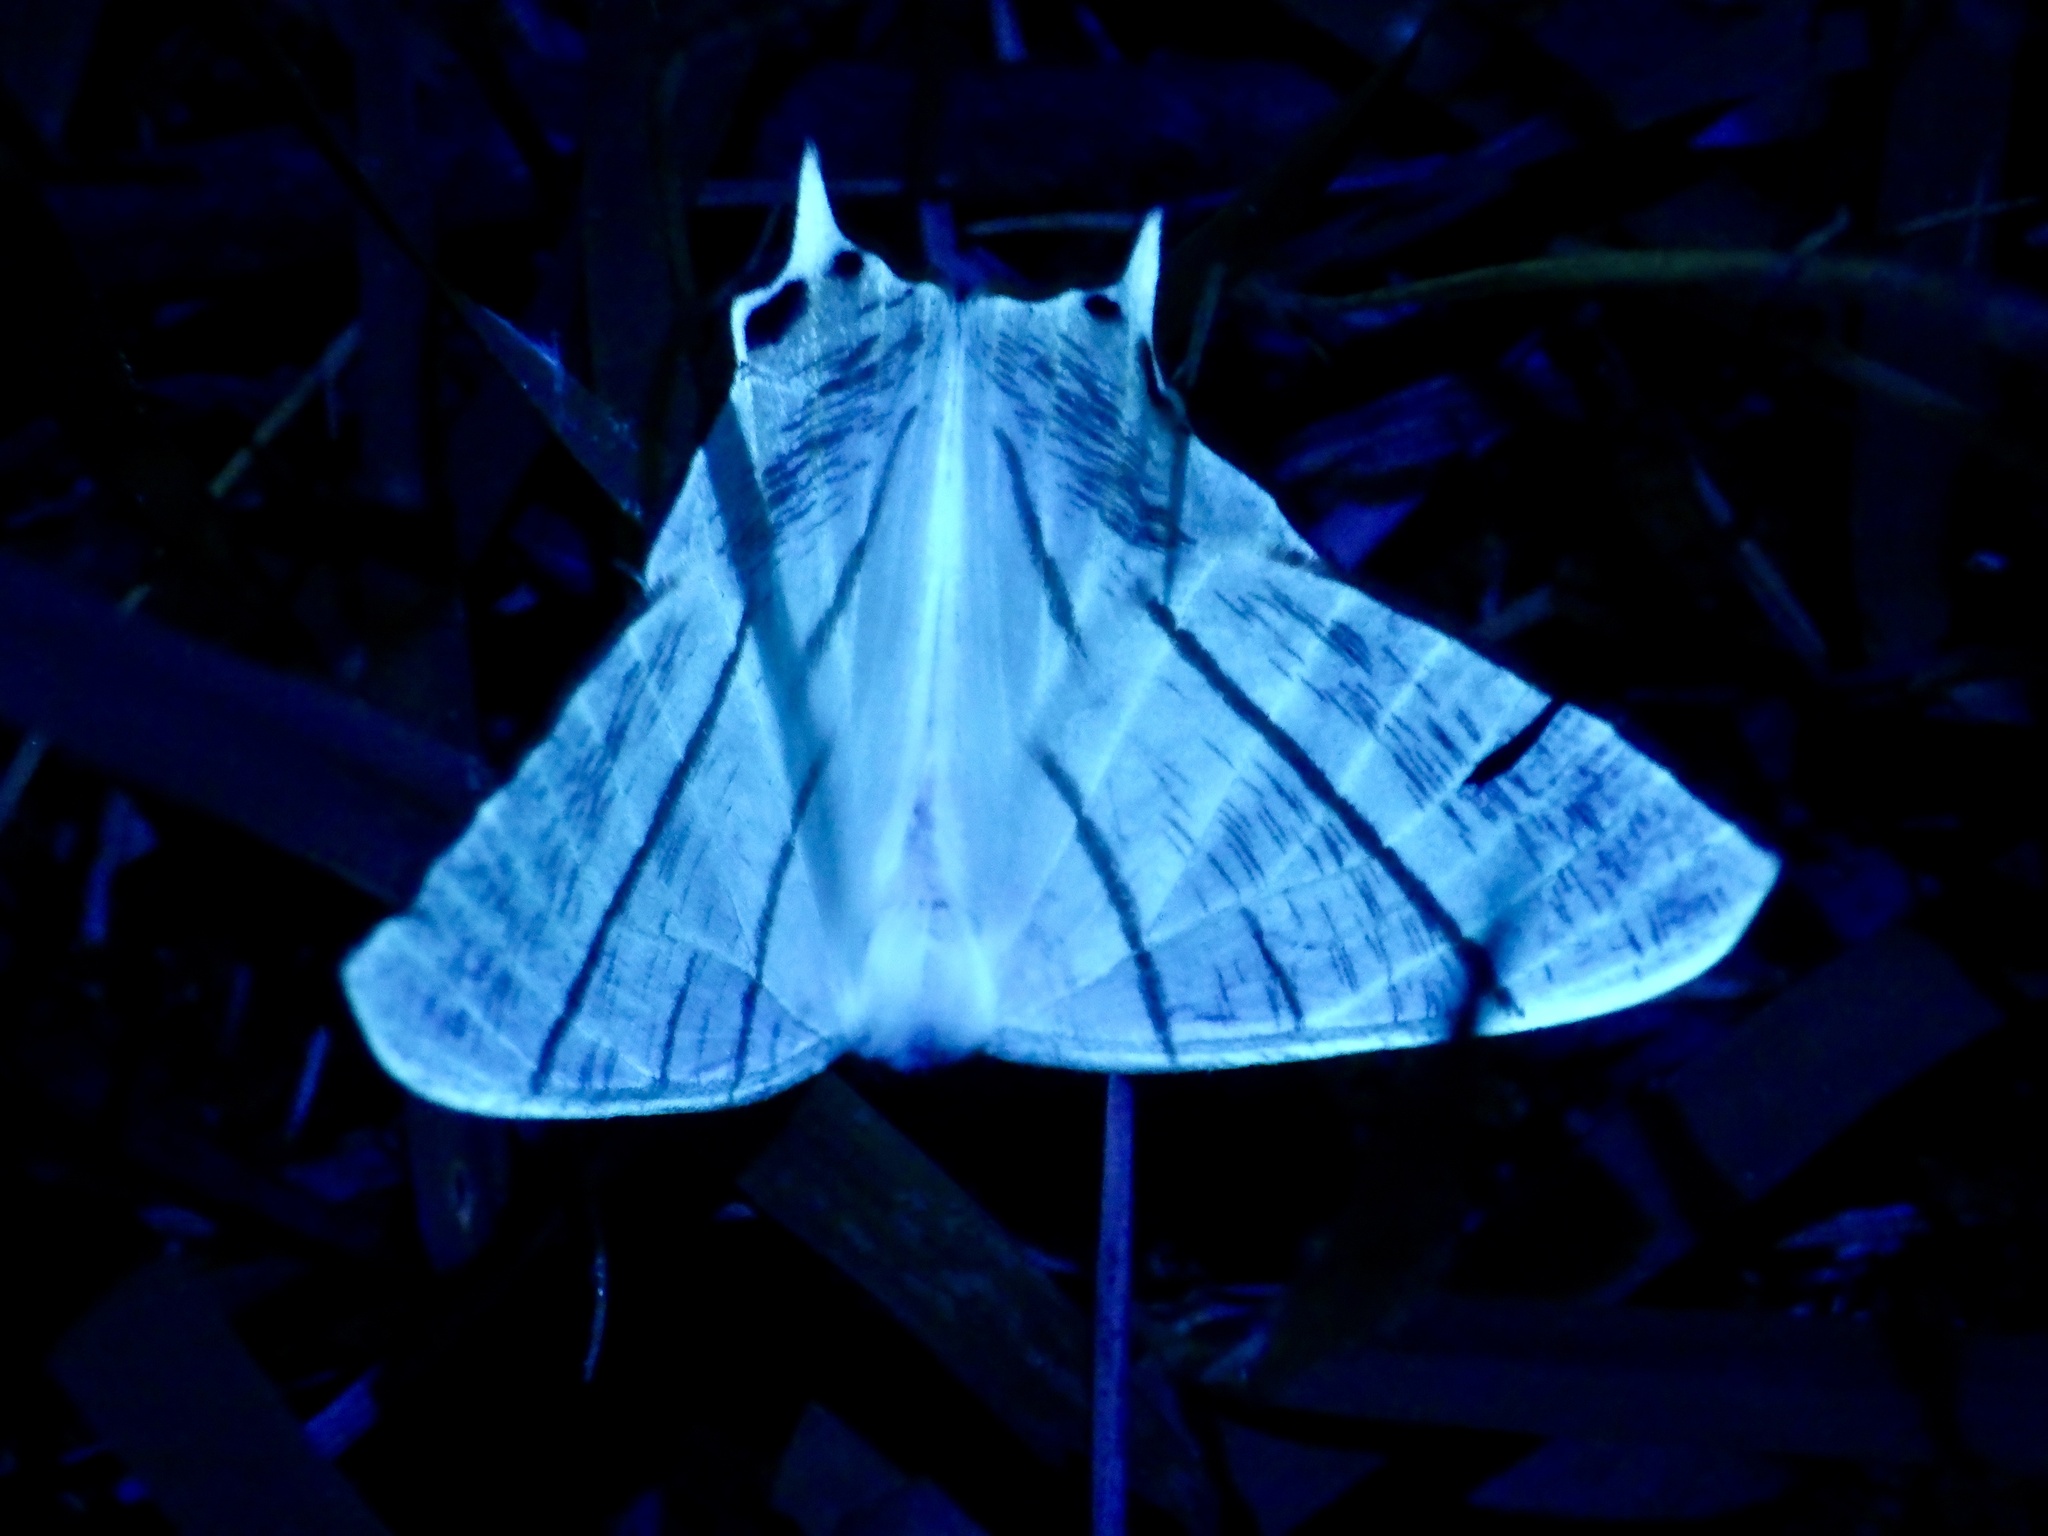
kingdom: Animalia
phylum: Arthropoda
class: Insecta
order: Lepidoptera
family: Geometridae
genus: Ourapteryx
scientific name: Ourapteryx nivea
